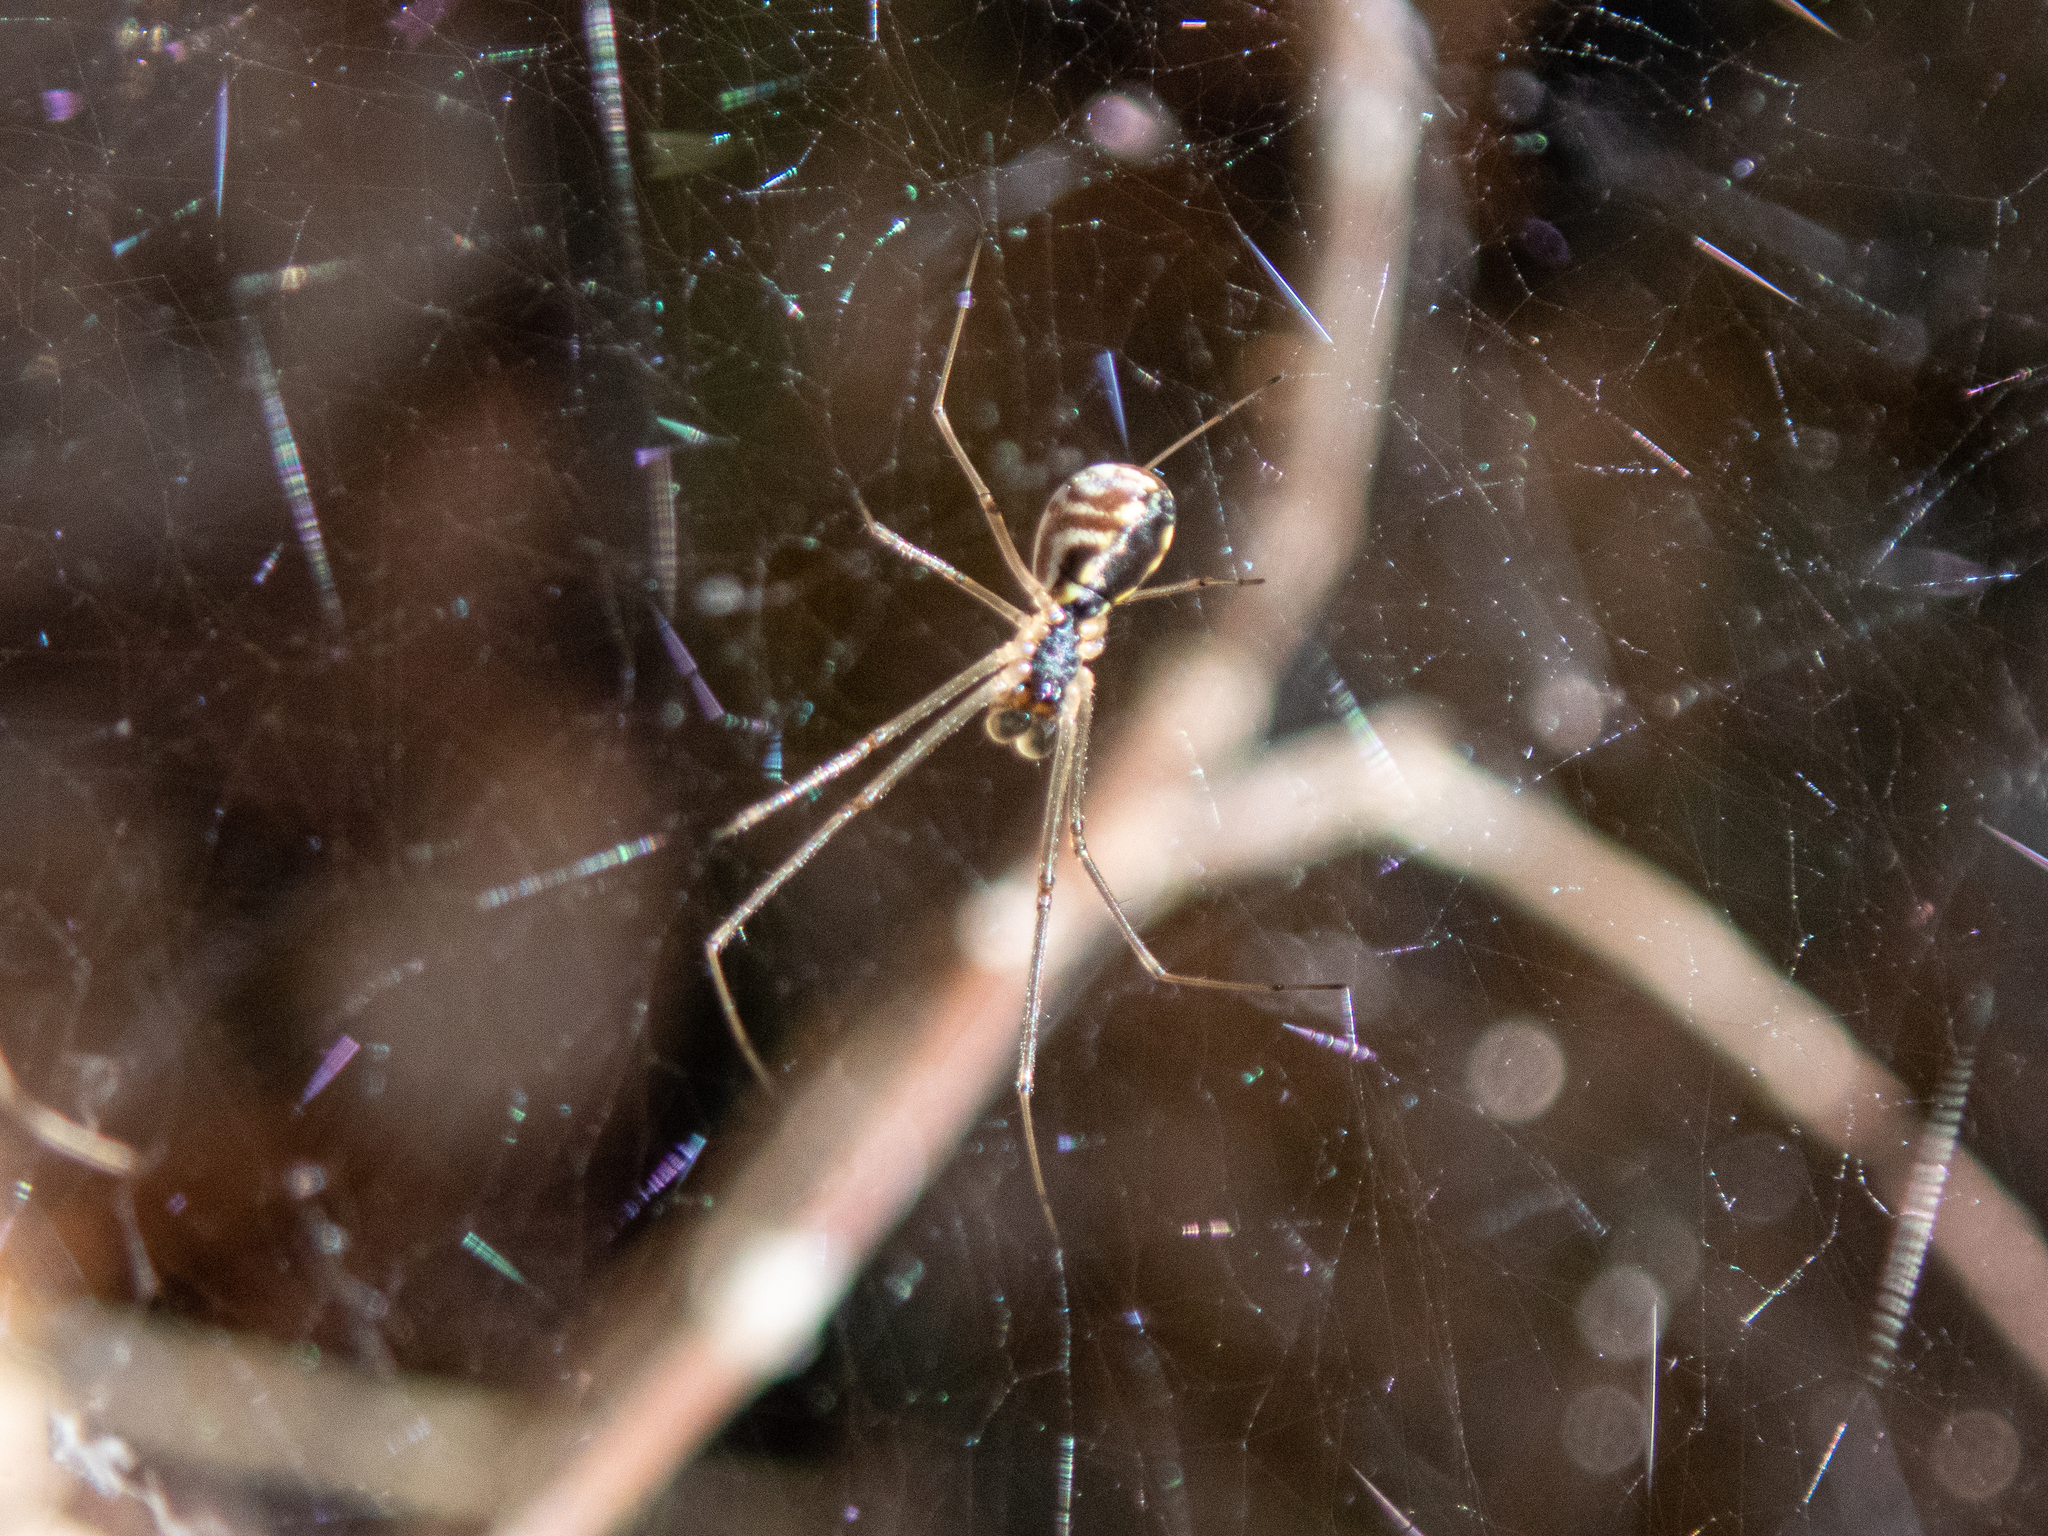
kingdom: Animalia
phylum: Arthropoda
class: Arachnida
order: Araneae
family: Linyphiidae
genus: Neriene
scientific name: Neriene radiata
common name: Filmy dome spider
